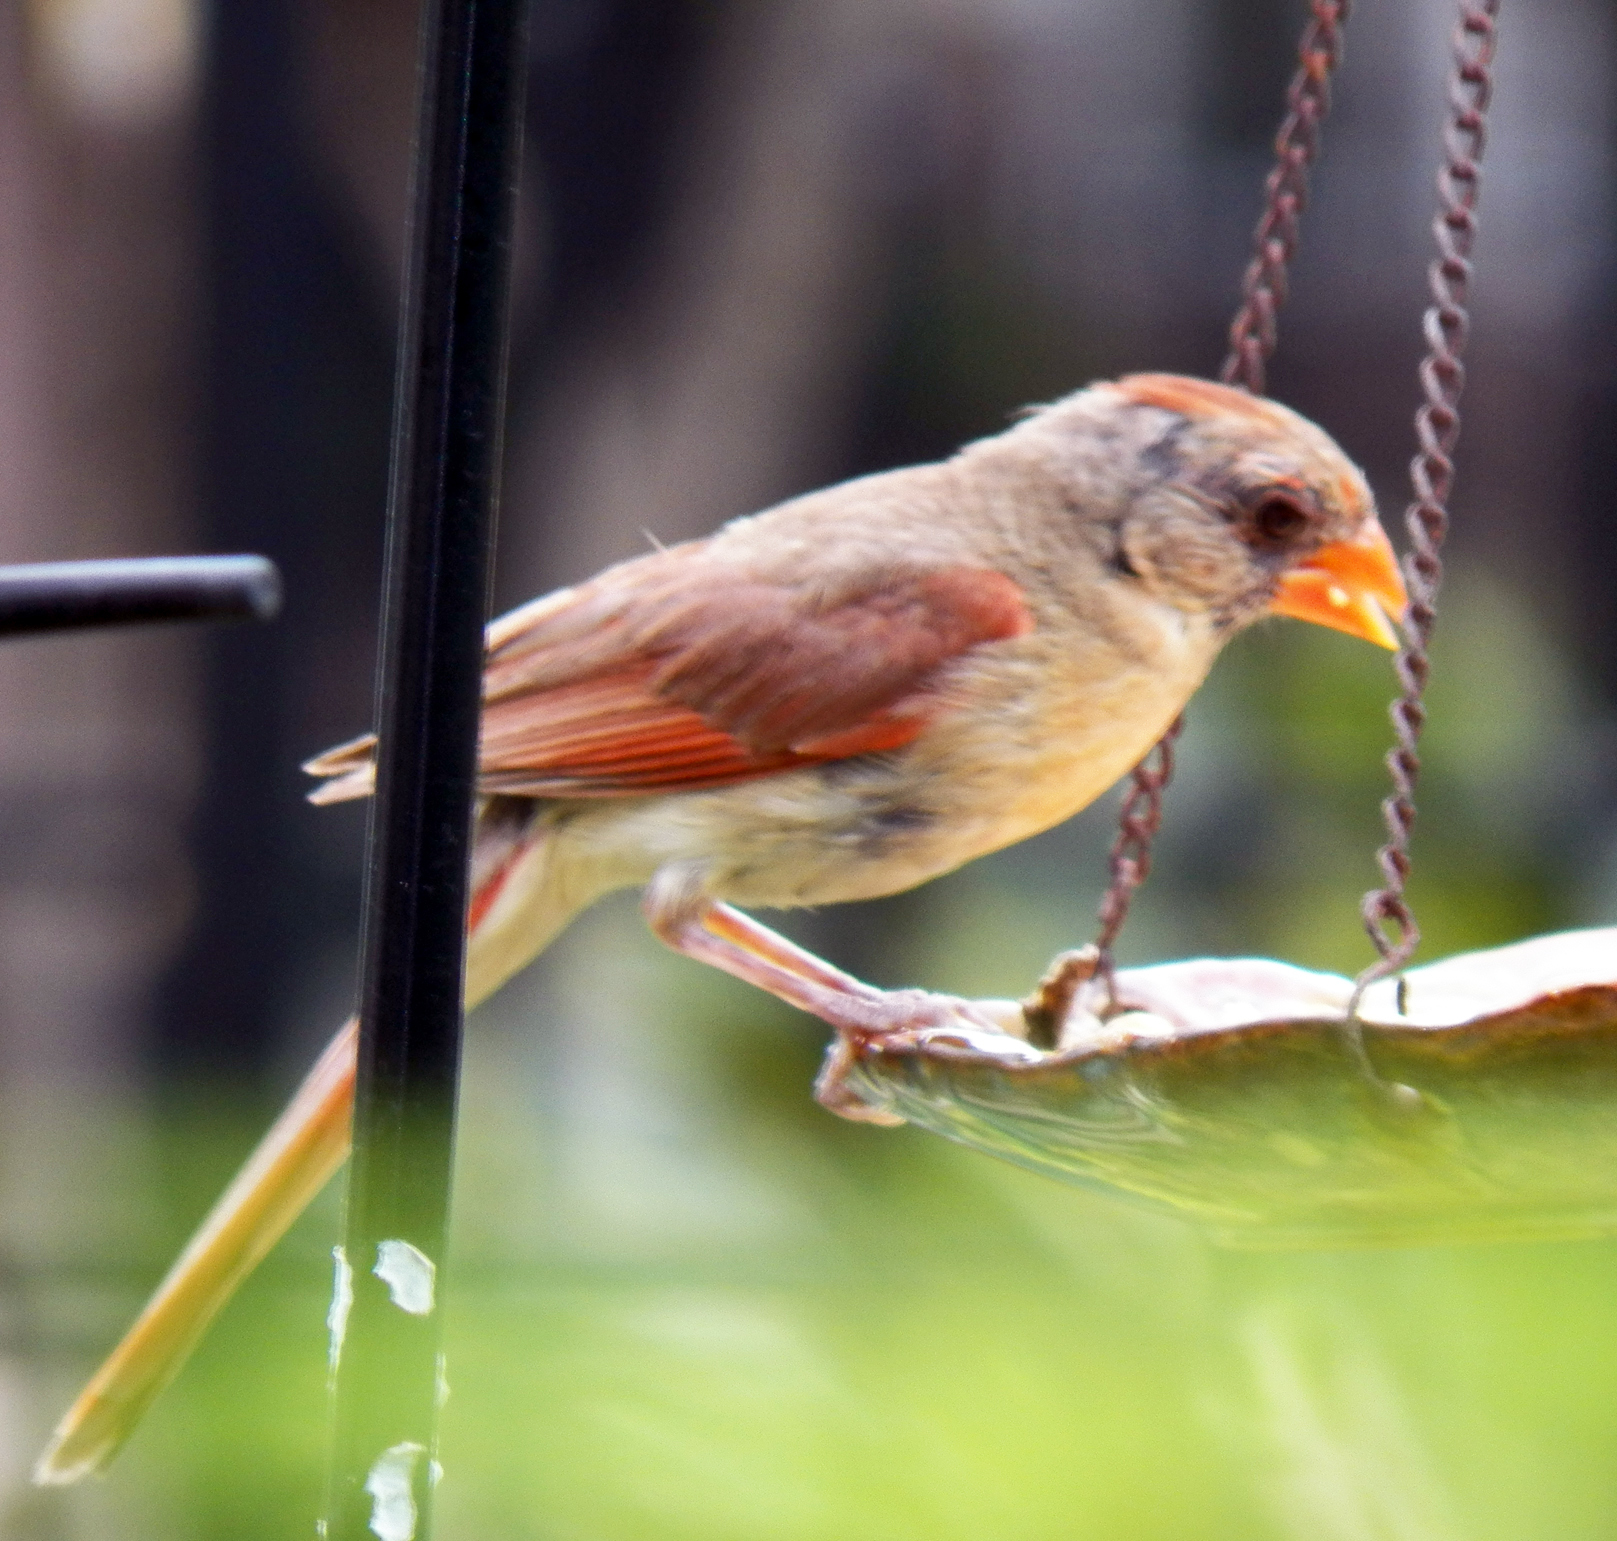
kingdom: Animalia
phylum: Chordata
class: Aves
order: Passeriformes
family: Cardinalidae
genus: Cardinalis
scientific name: Cardinalis cardinalis
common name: Northern cardinal
